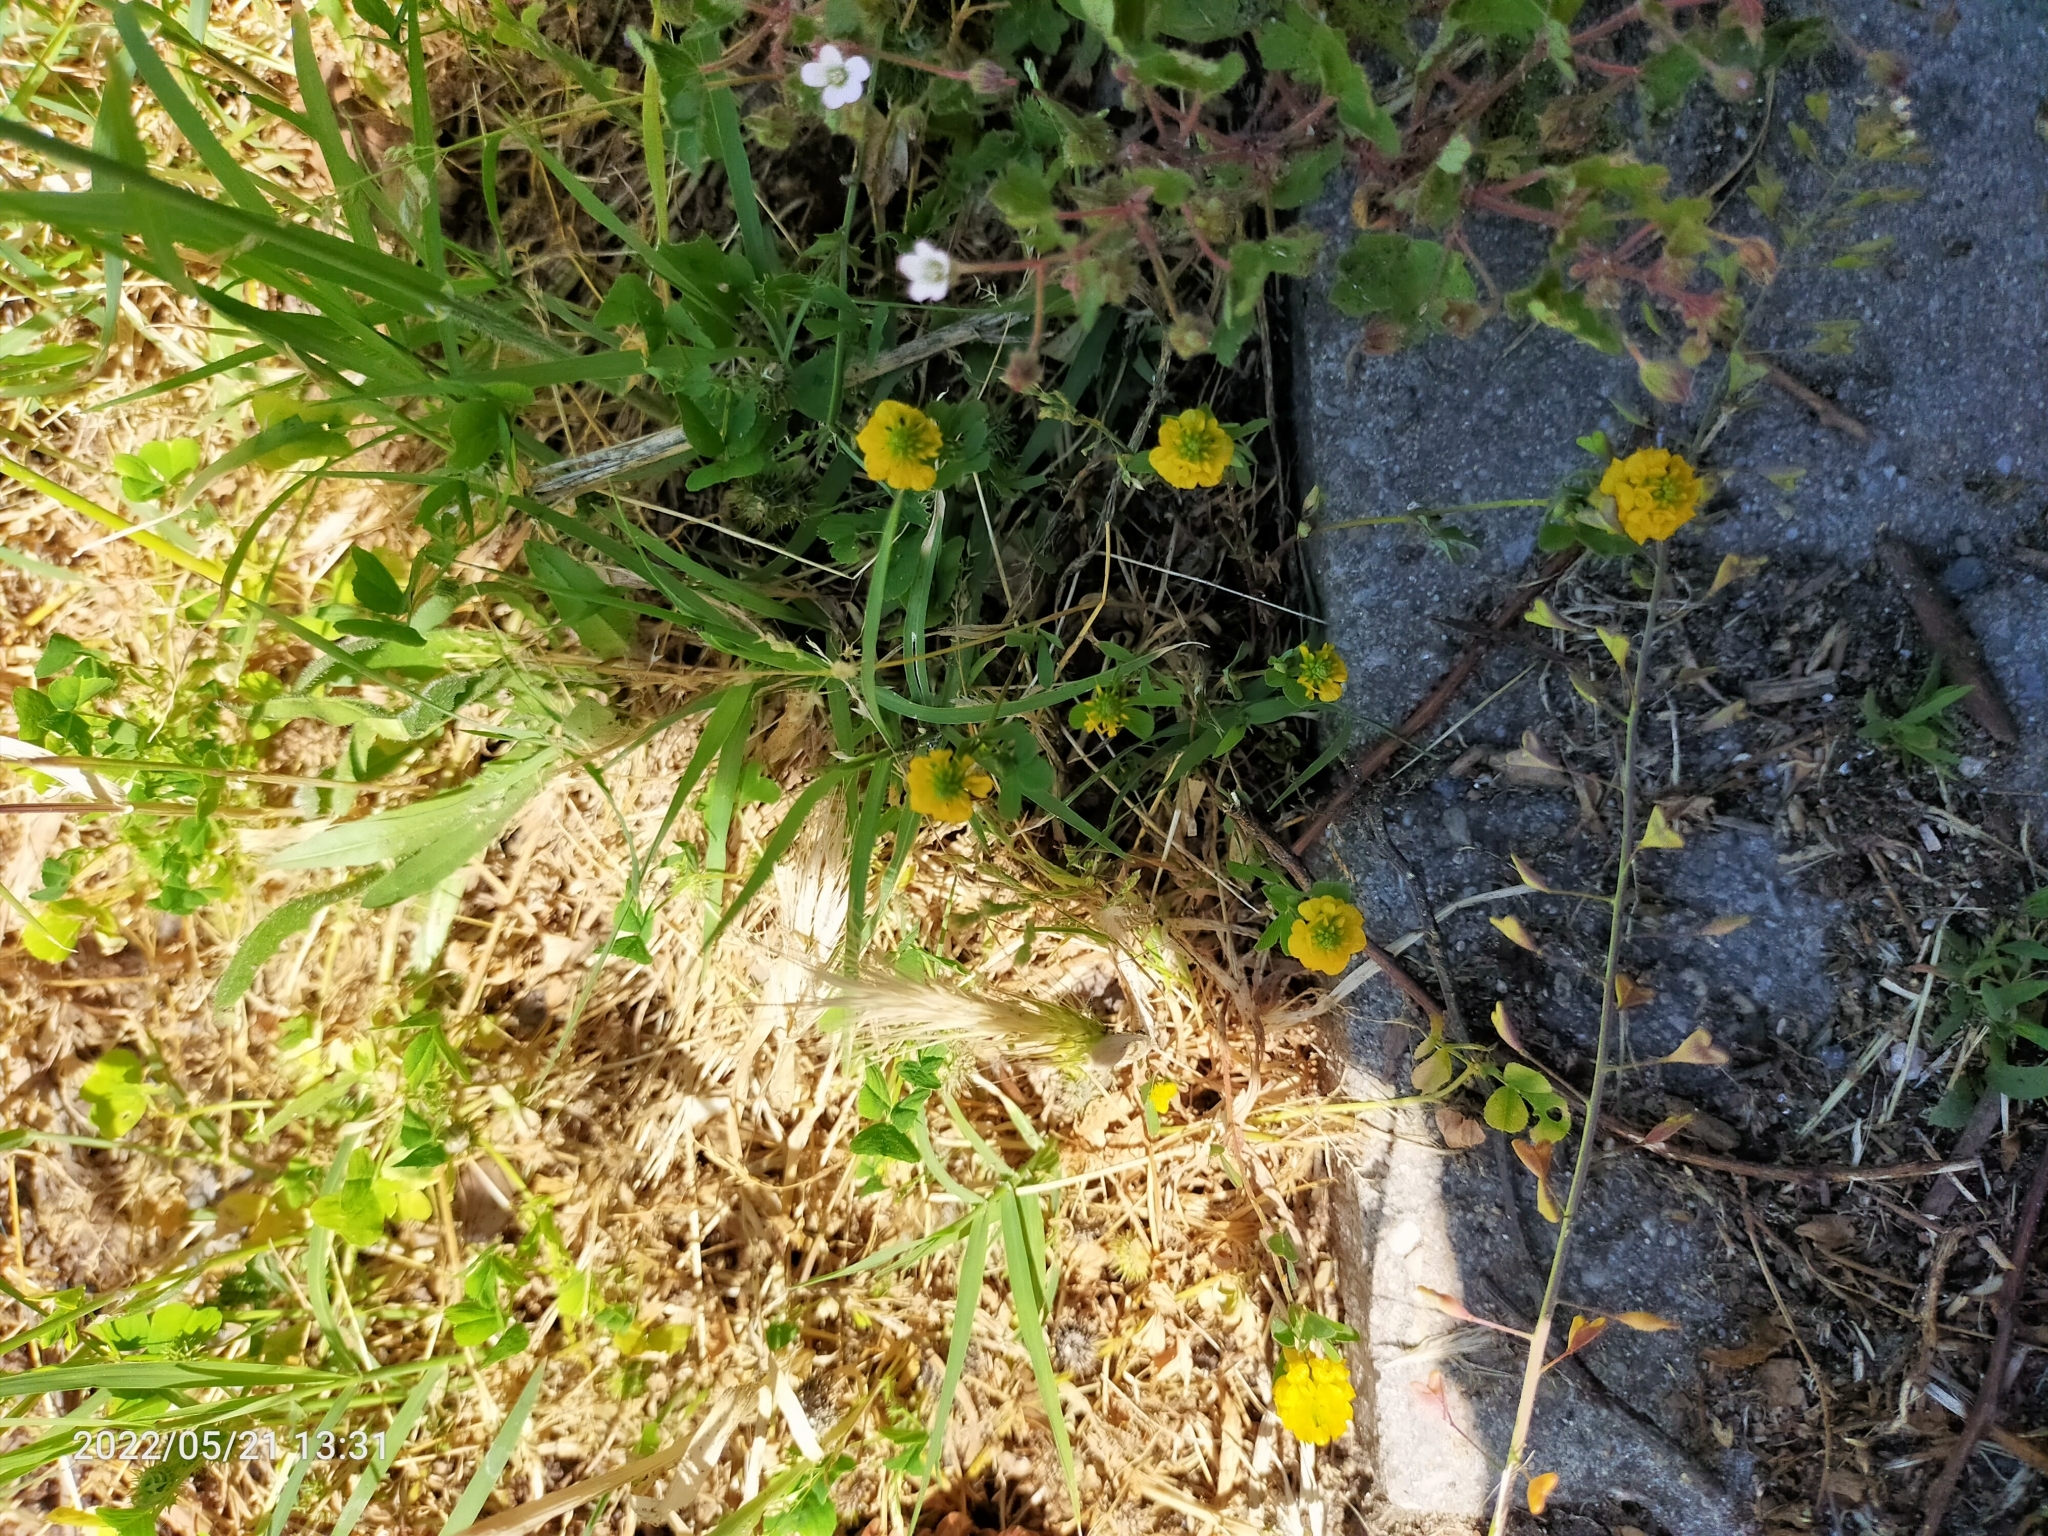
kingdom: Plantae
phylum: Tracheophyta
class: Magnoliopsida
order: Fabales
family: Fabaceae
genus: Trifolium
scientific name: Trifolium campestre
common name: Field clover
